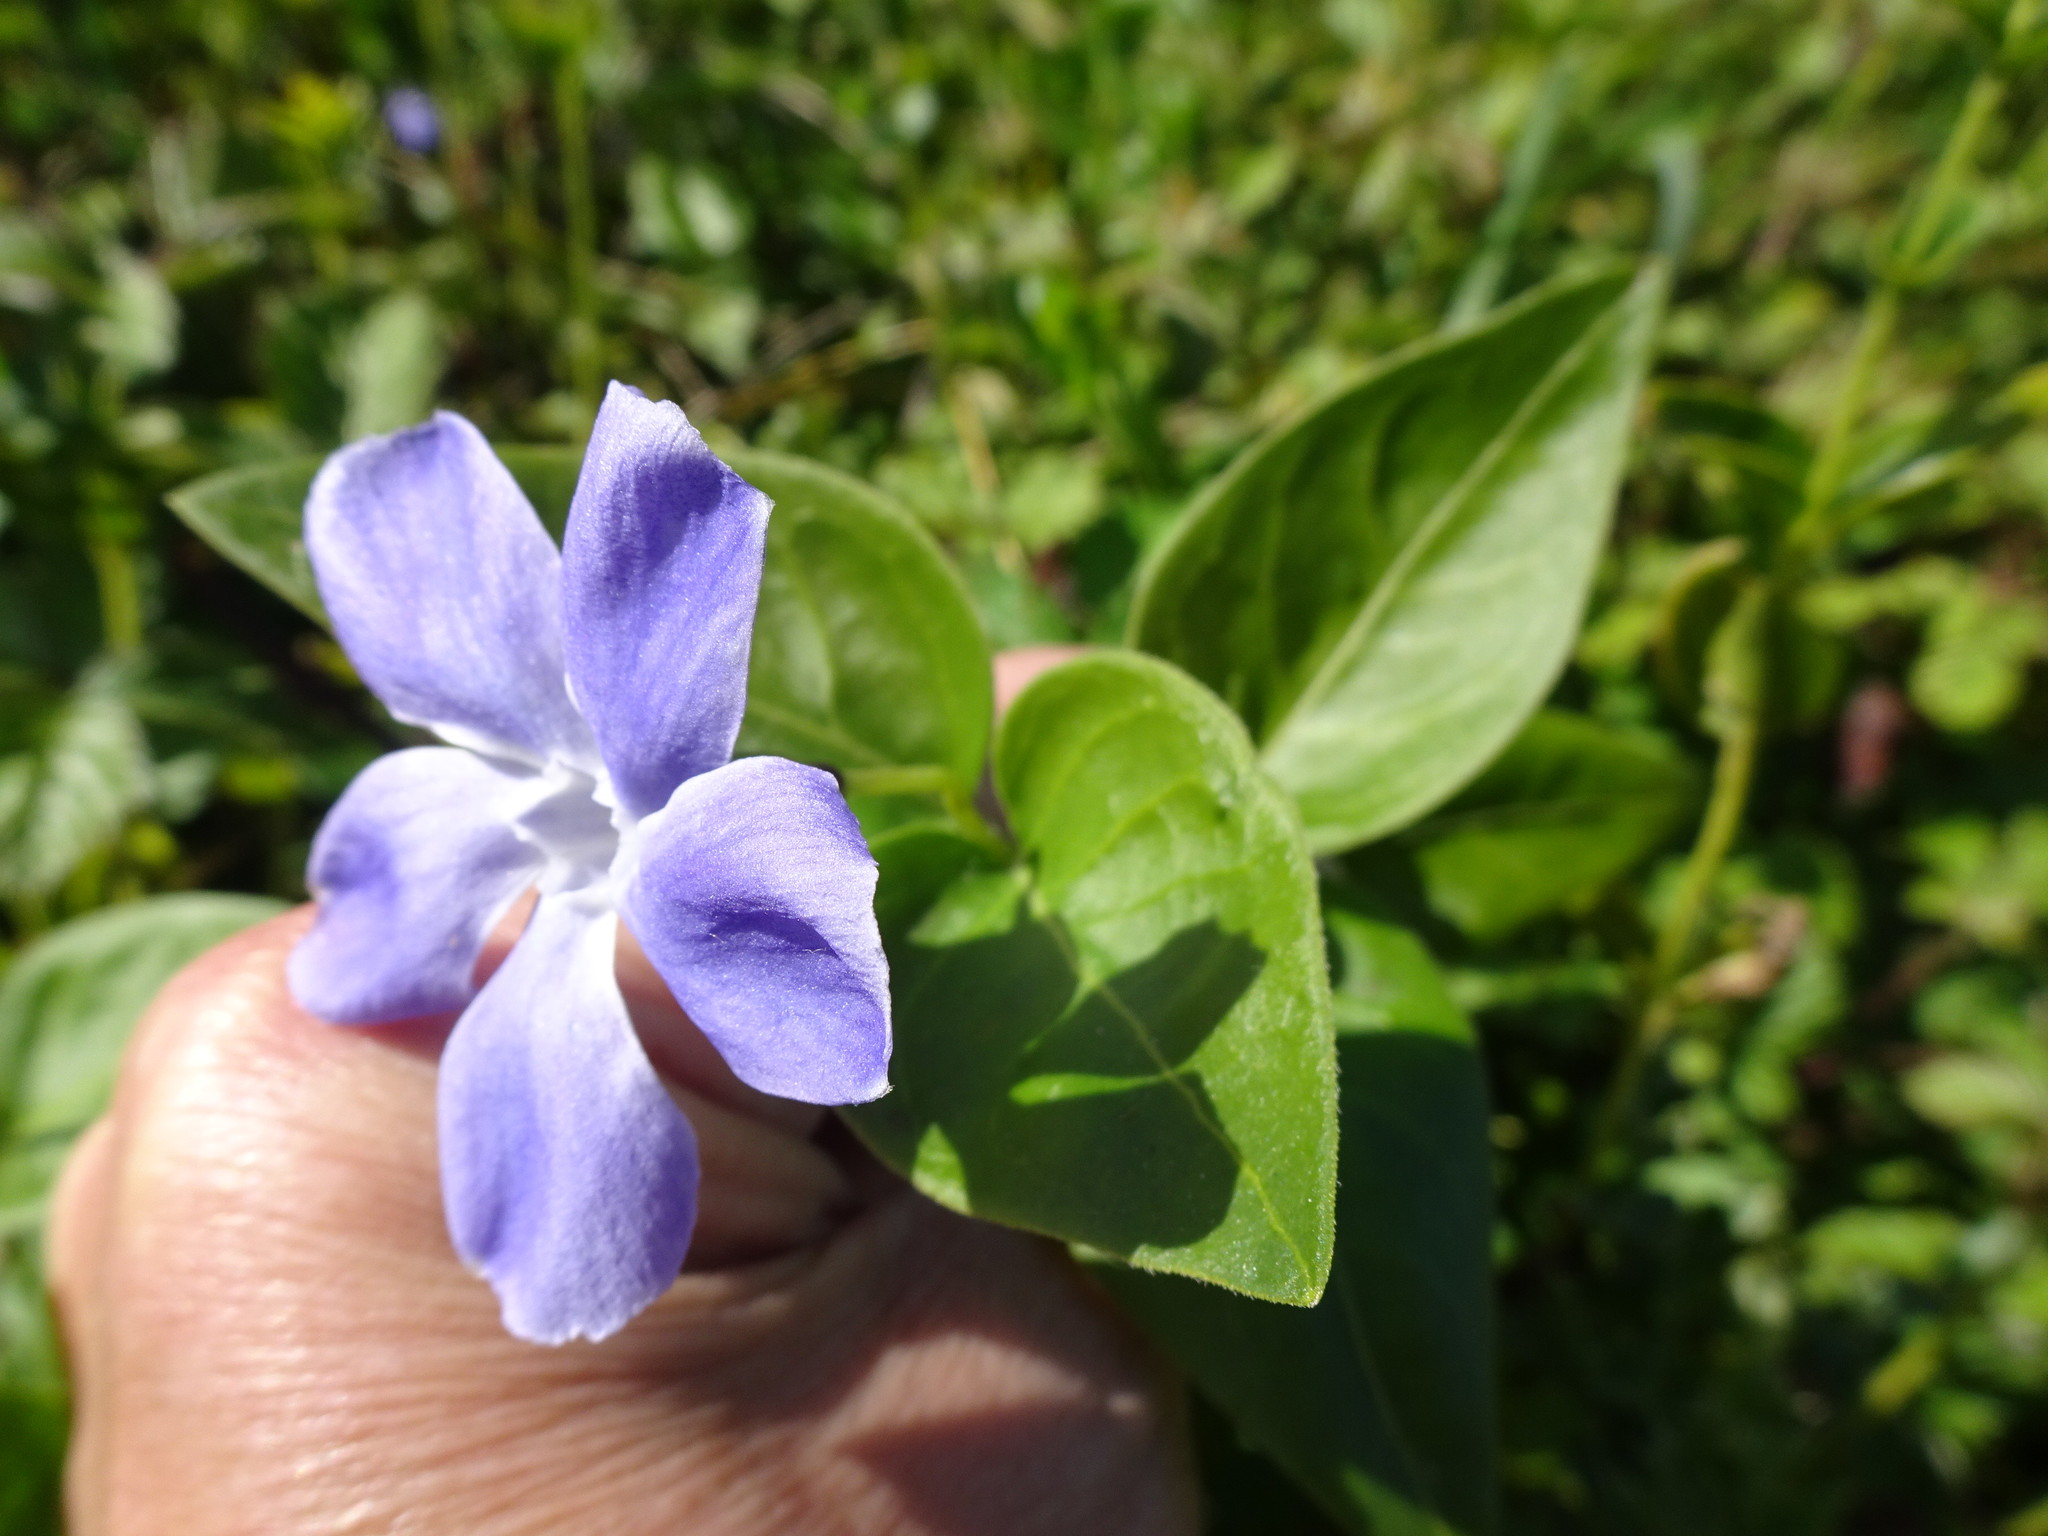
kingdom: Plantae
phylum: Tracheophyta
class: Magnoliopsida
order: Gentianales
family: Apocynaceae
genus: Vinca
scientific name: Vinca major
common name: Greater periwinkle
